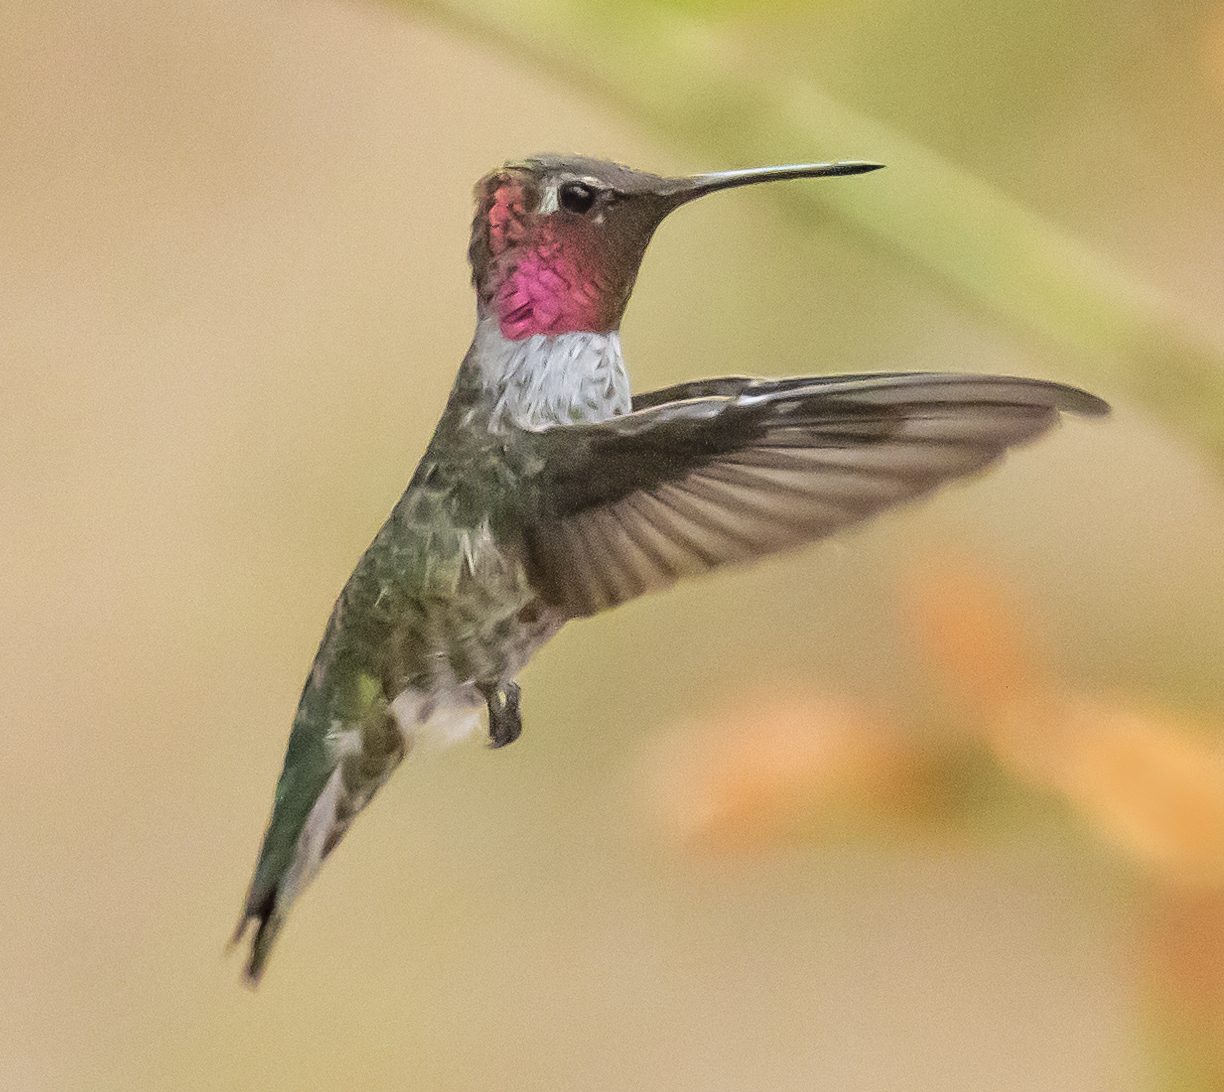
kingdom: Animalia
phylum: Chordata
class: Aves
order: Apodiformes
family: Trochilidae
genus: Calypte
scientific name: Calypte anna
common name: Anna's hummingbird
